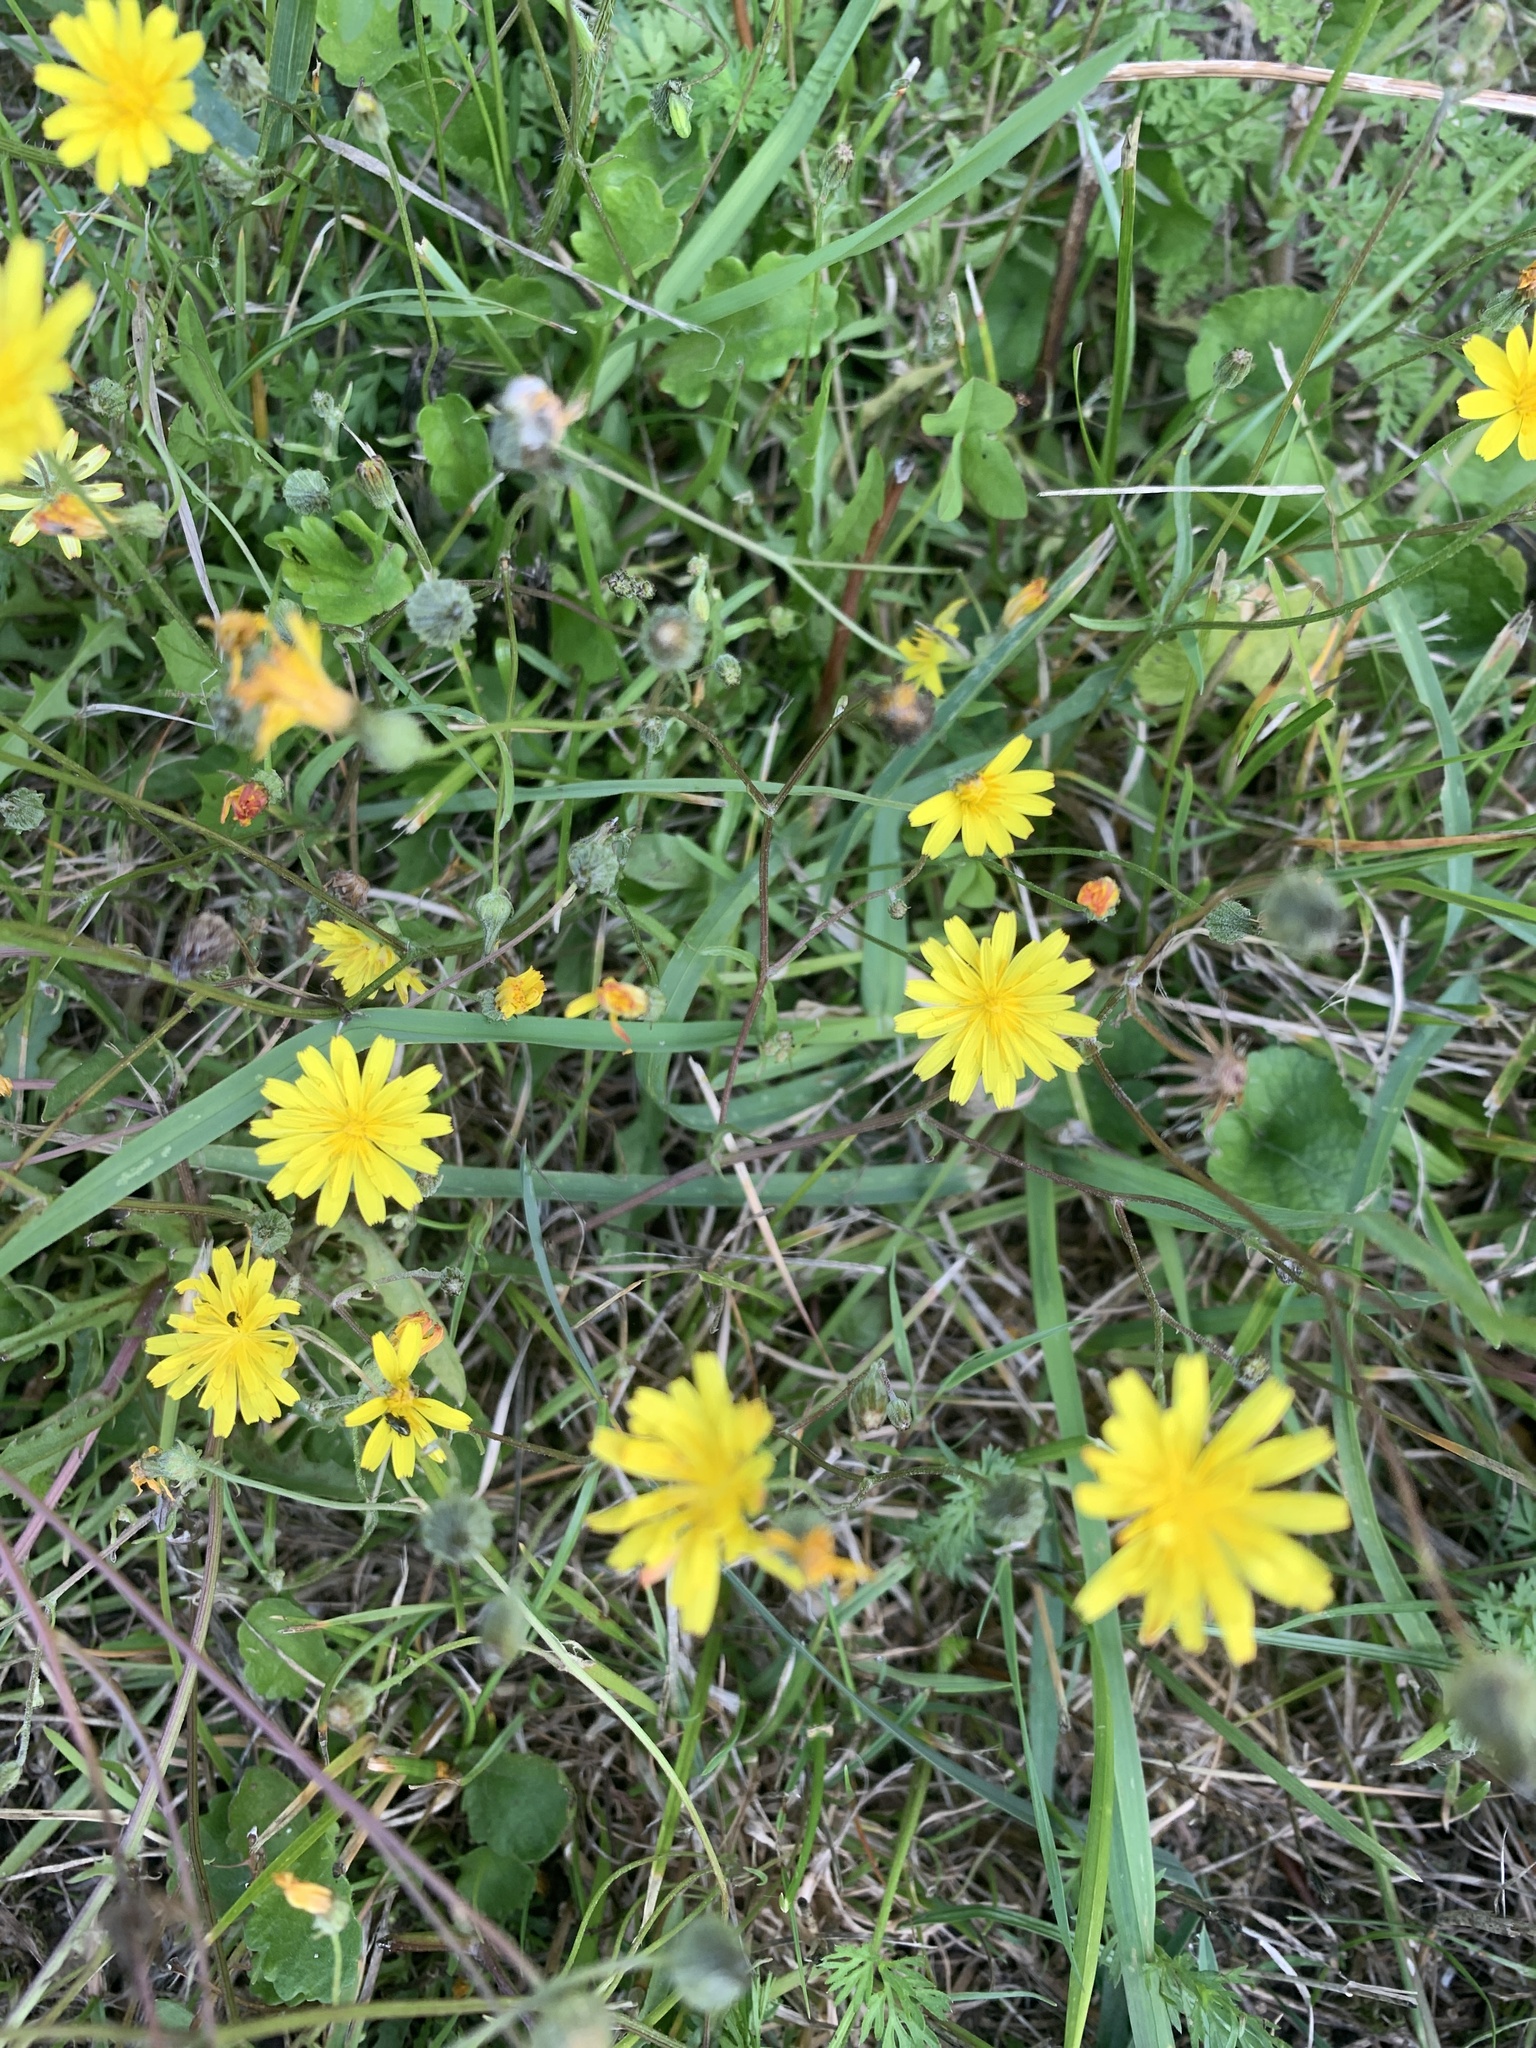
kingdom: Plantae
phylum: Tracheophyta
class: Magnoliopsida
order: Asterales
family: Asteraceae
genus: Crepis
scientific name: Crepis capillaris
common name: Smooth hawksbeard
